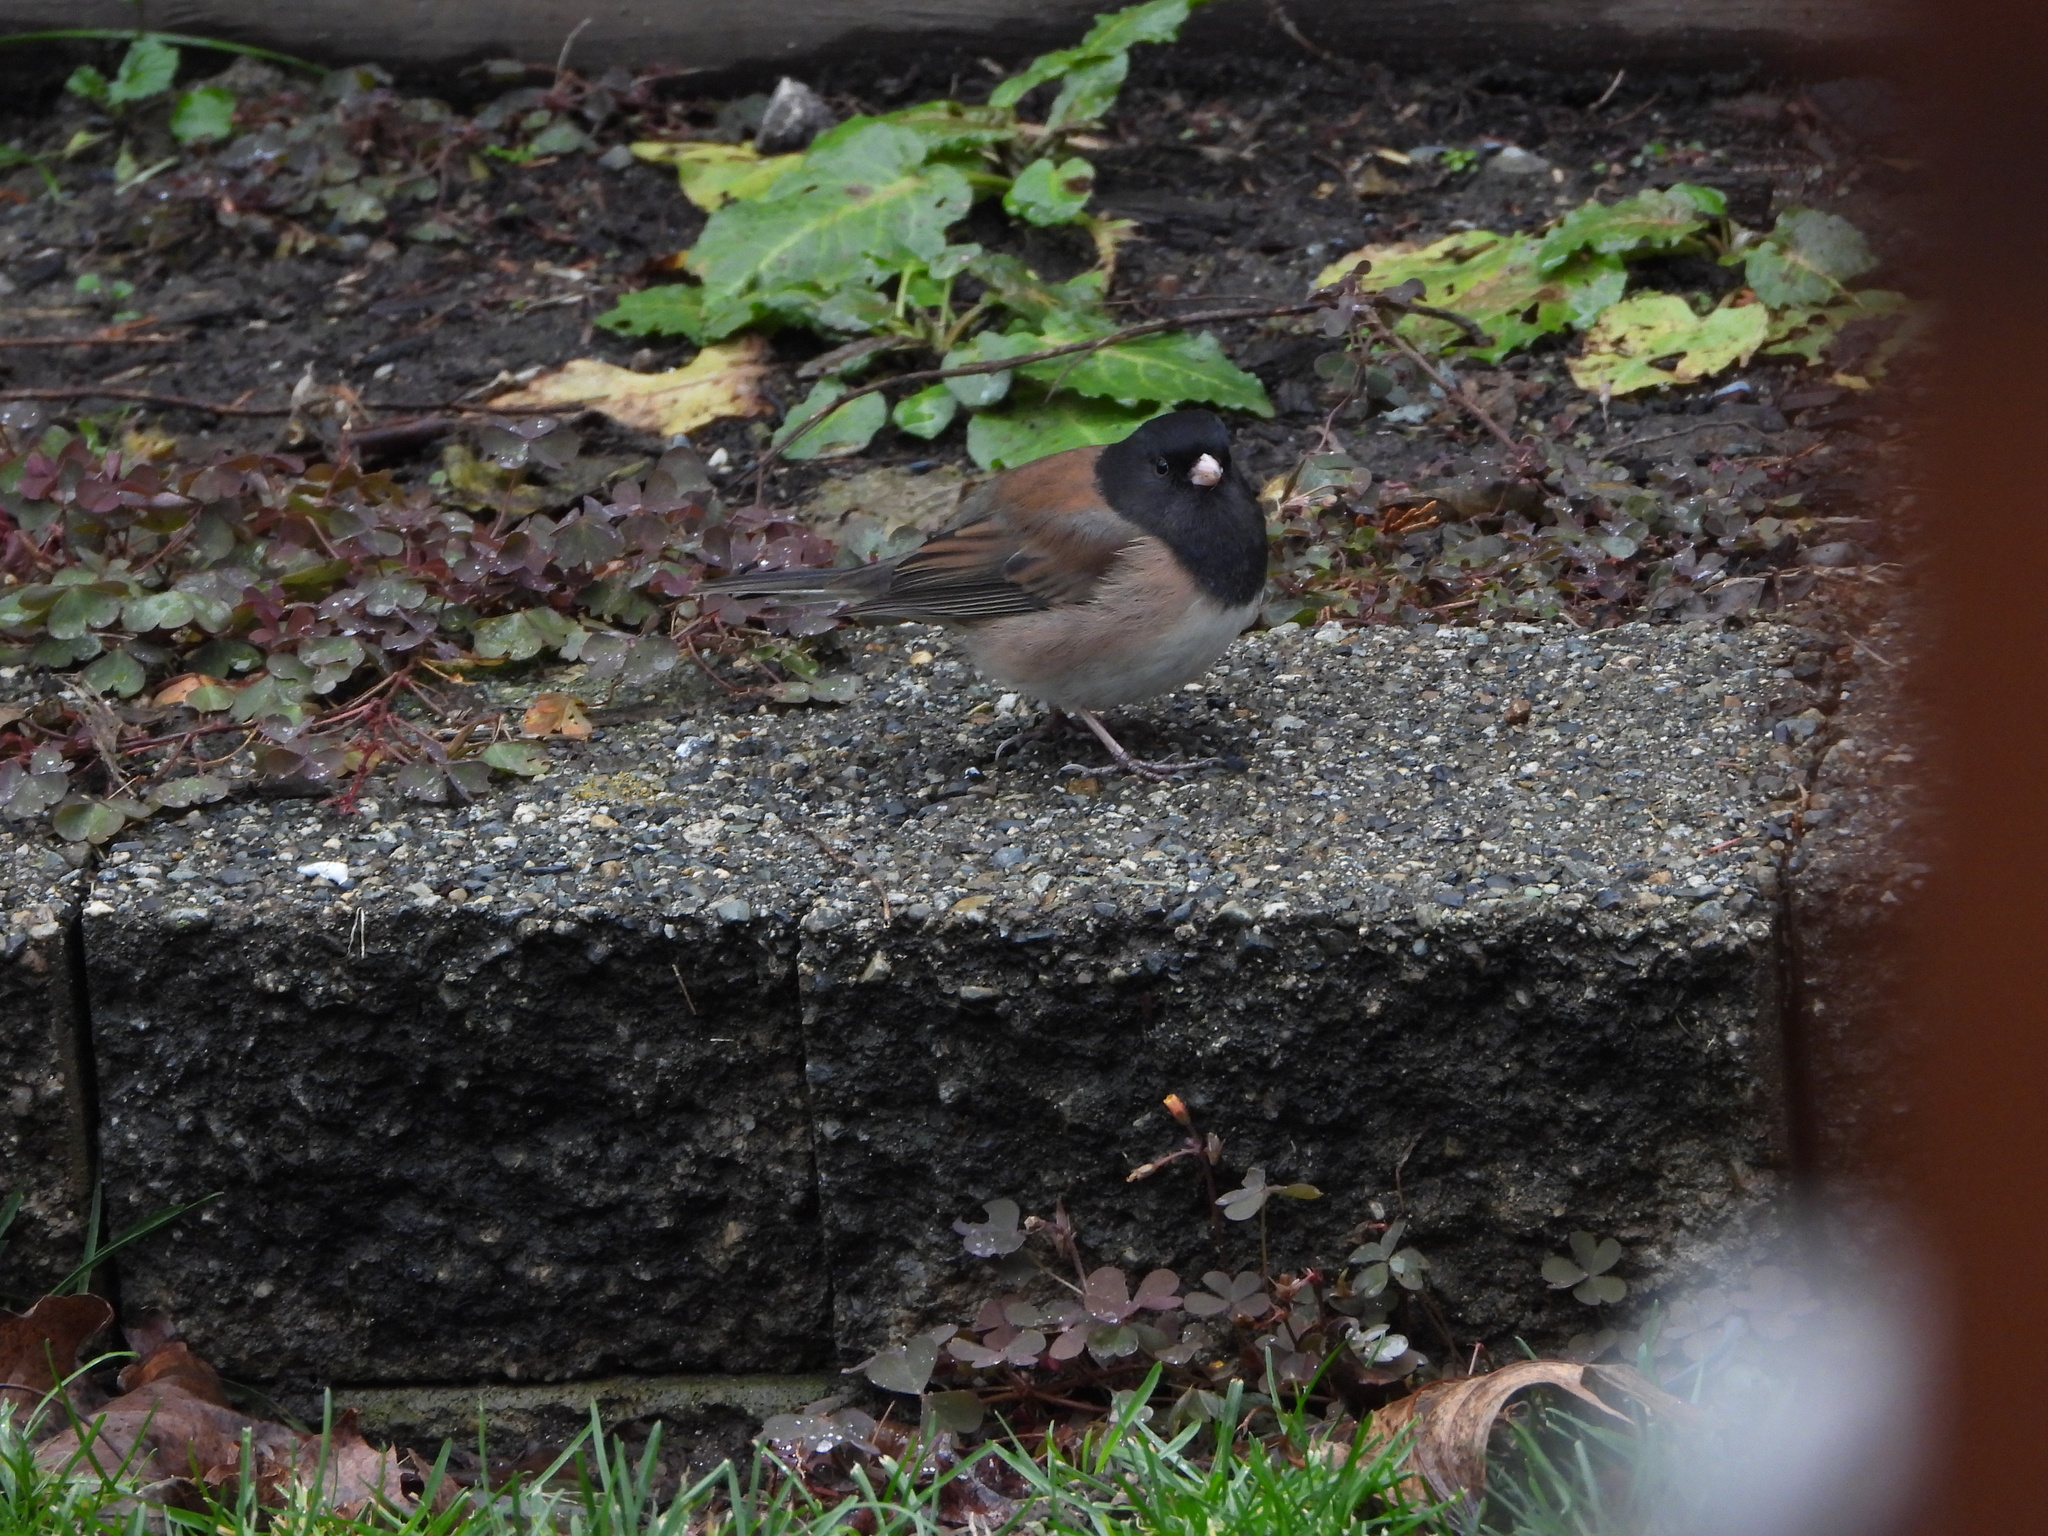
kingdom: Animalia
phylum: Chordata
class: Aves
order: Passeriformes
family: Passerellidae
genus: Junco
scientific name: Junco hyemalis
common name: Dark-eyed junco
